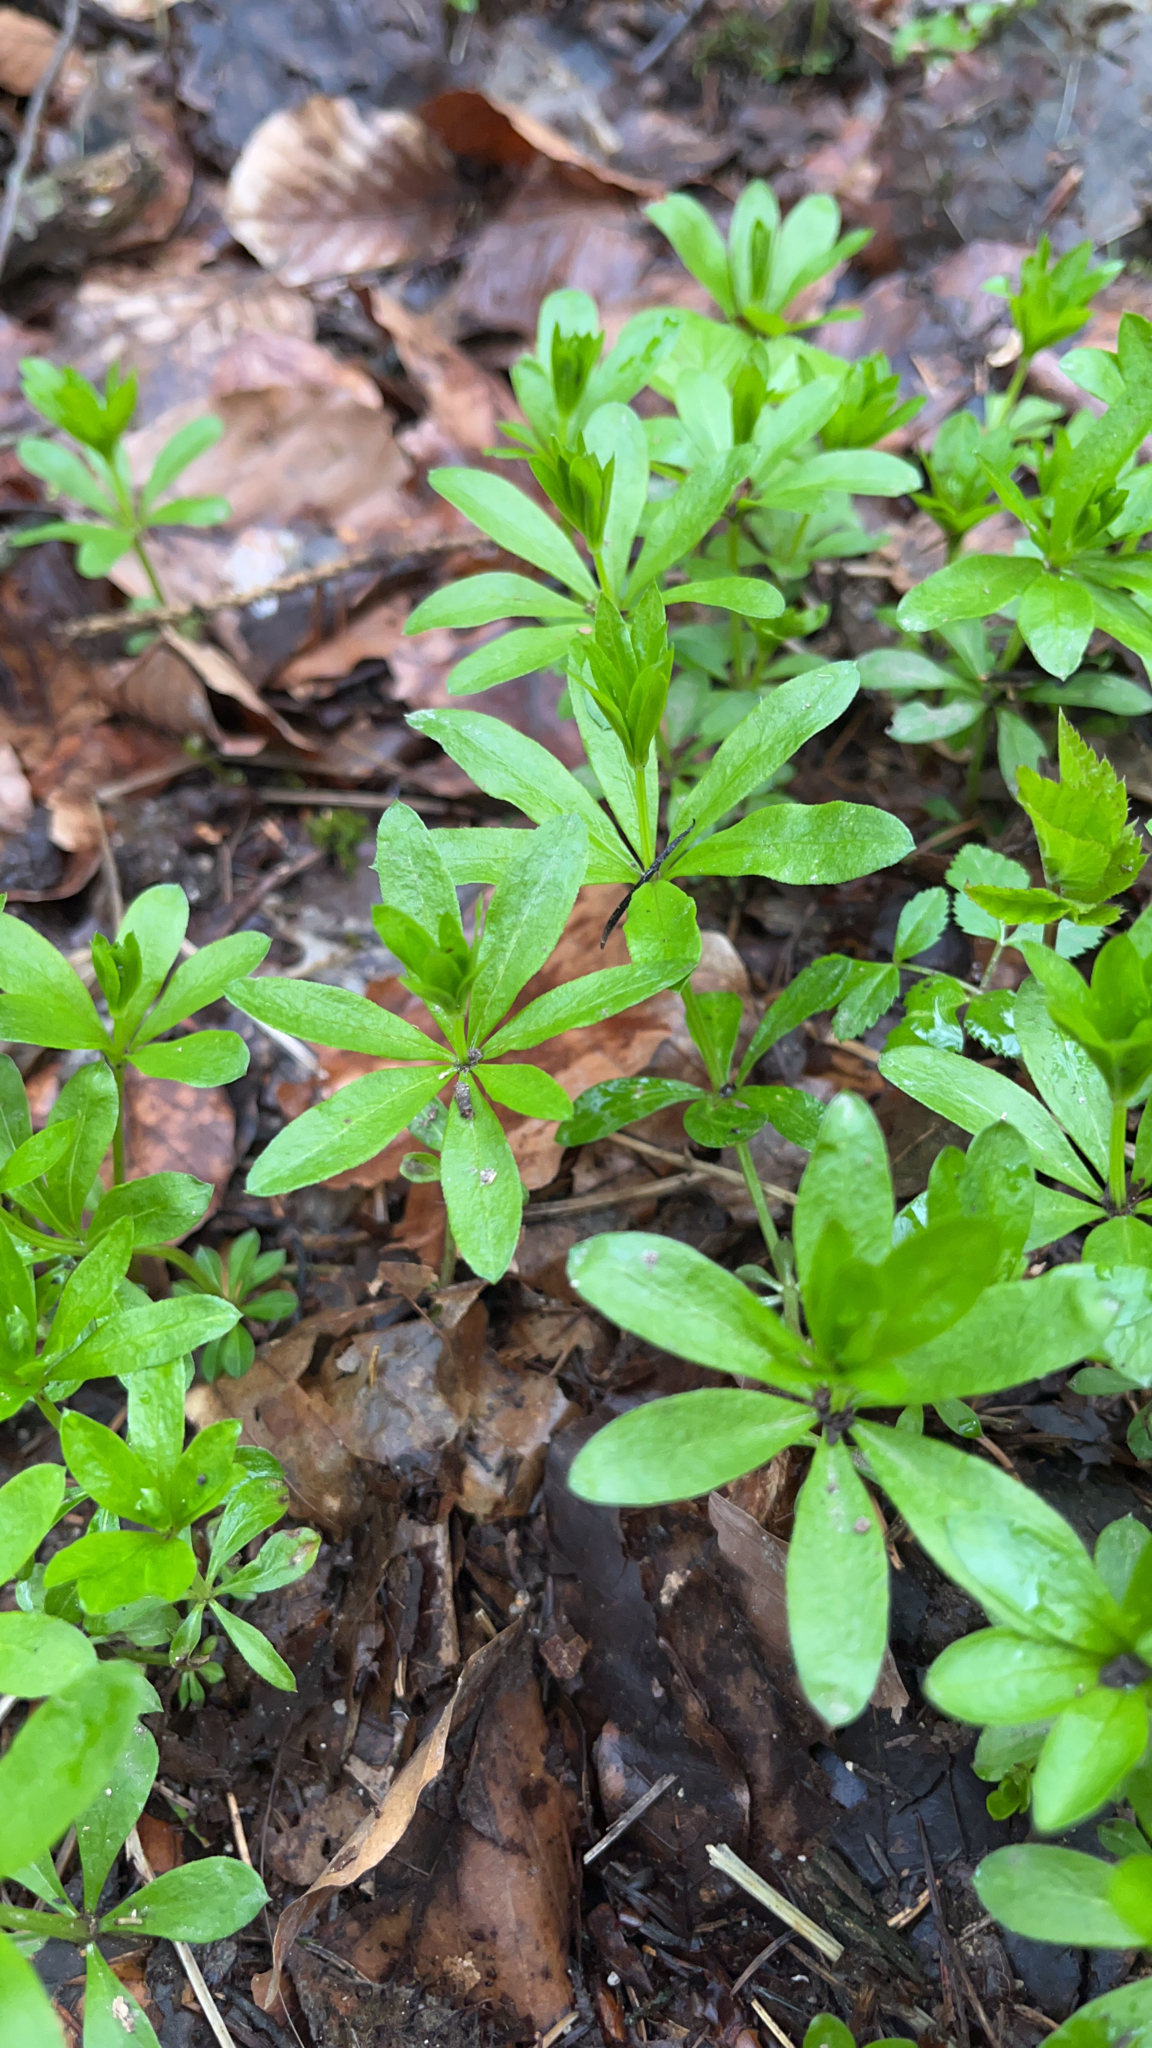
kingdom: Plantae
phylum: Tracheophyta
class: Magnoliopsida
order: Gentianales
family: Rubiaceae
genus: Galium
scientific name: Galium odoratum
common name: Sweet woodruff
